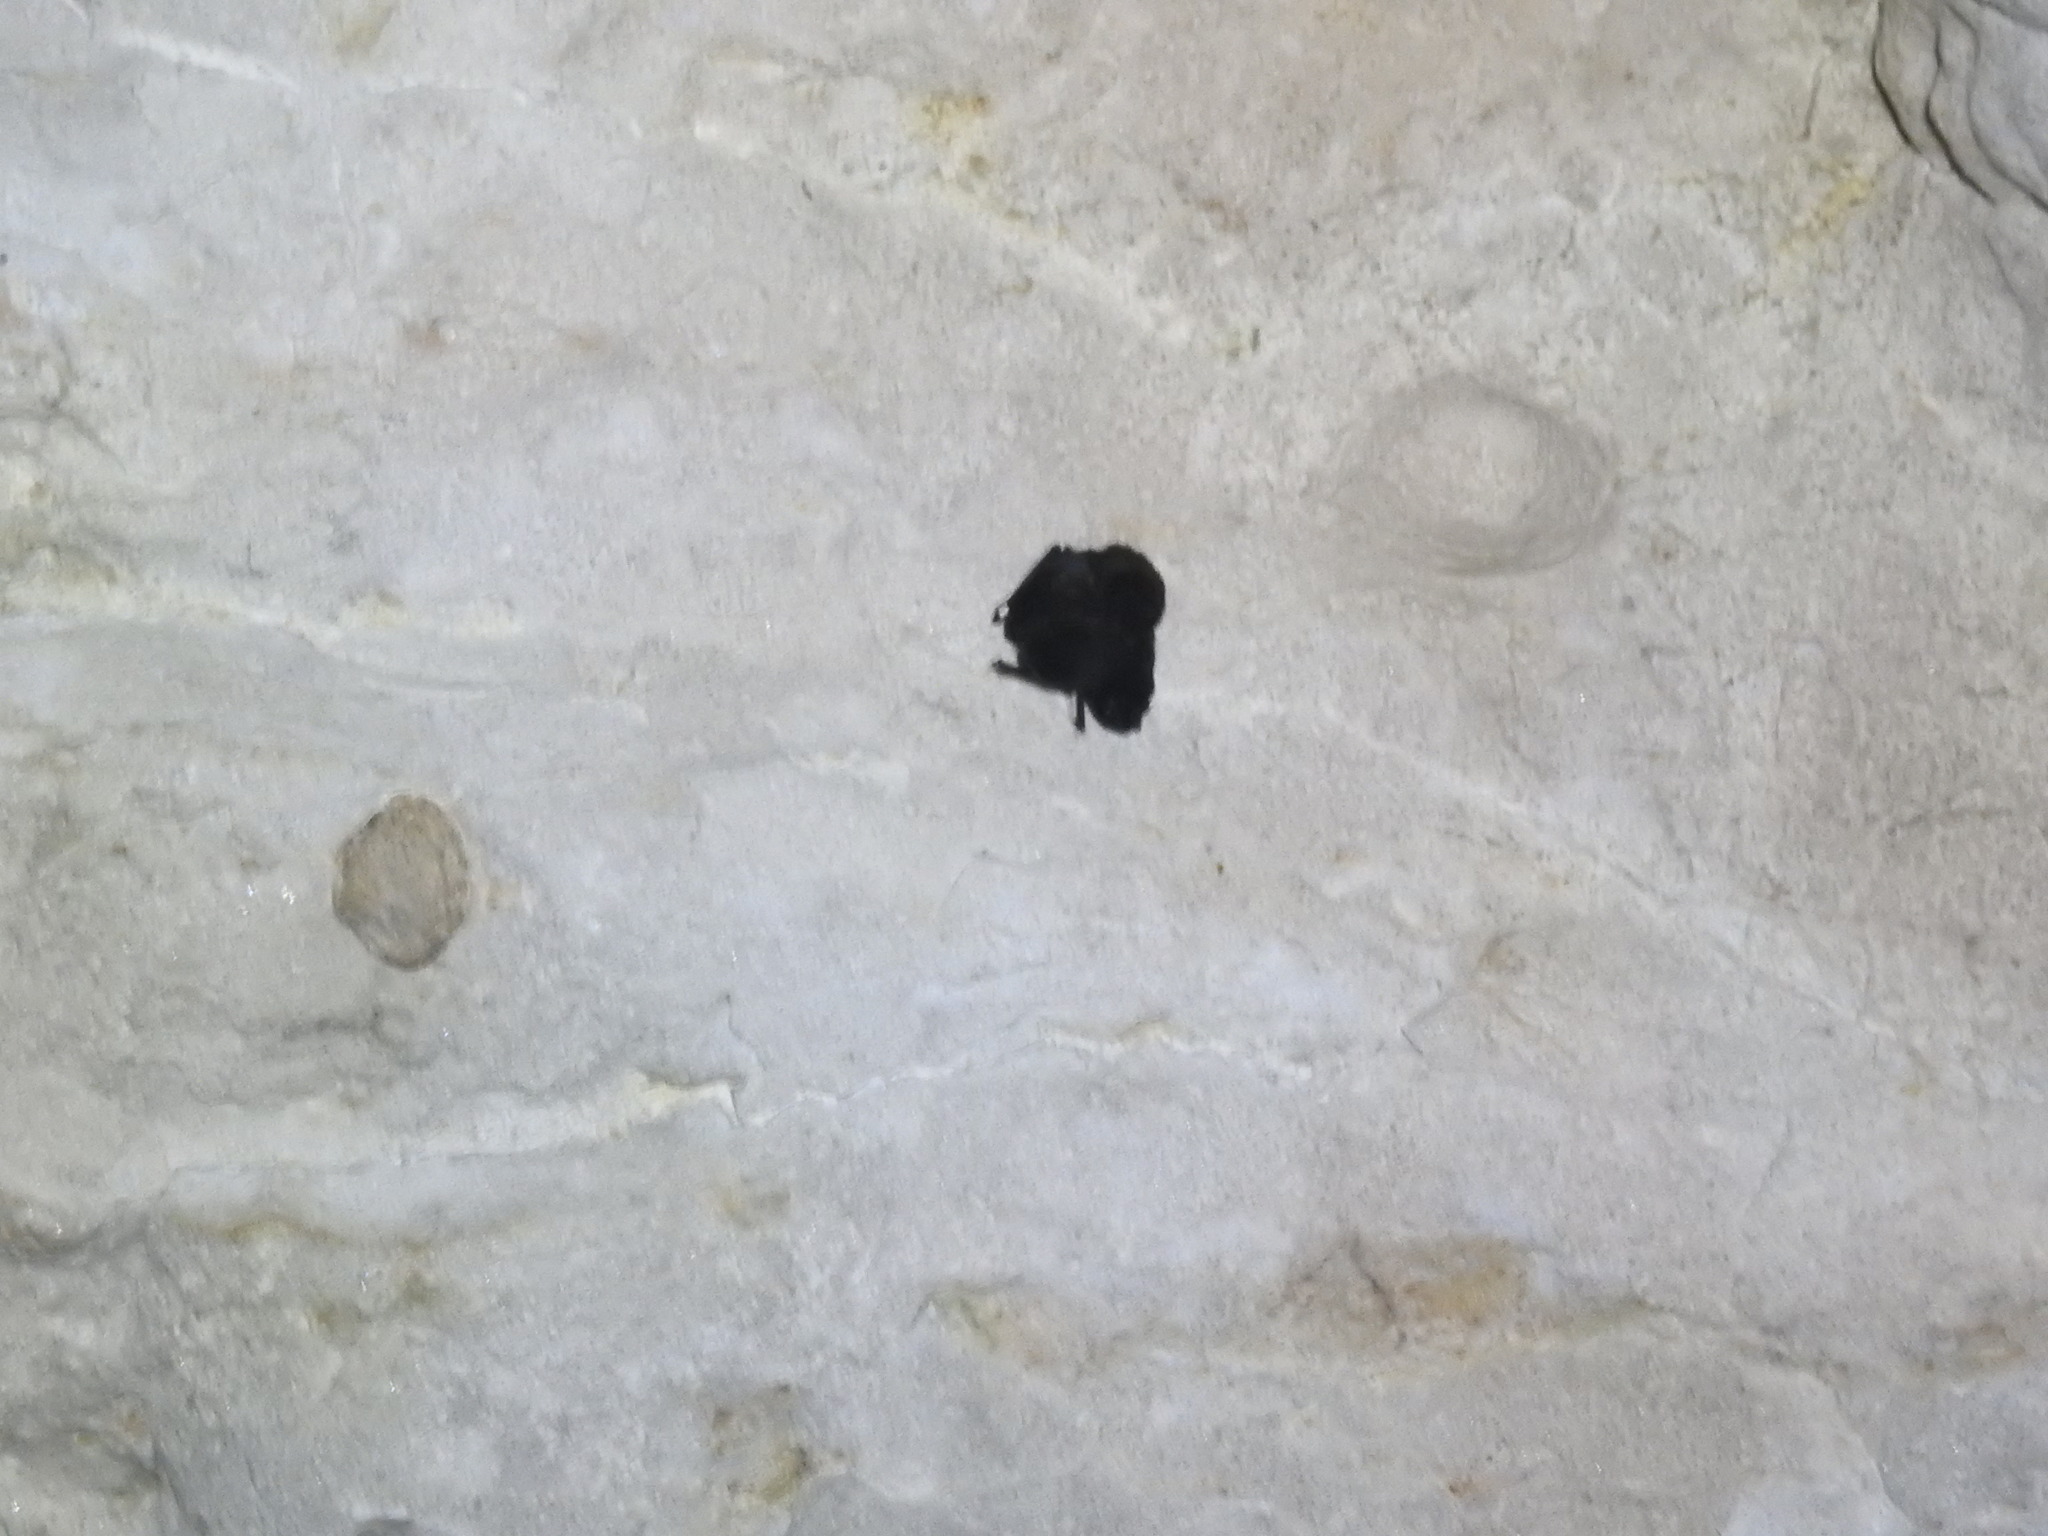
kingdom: Animalia
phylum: Chordata
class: Mammalia
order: Chiroptera
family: Vespertilionidae
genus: Chalinolobus
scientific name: Chalinolobus tuberculatus
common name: Long-tailed wattled bat
